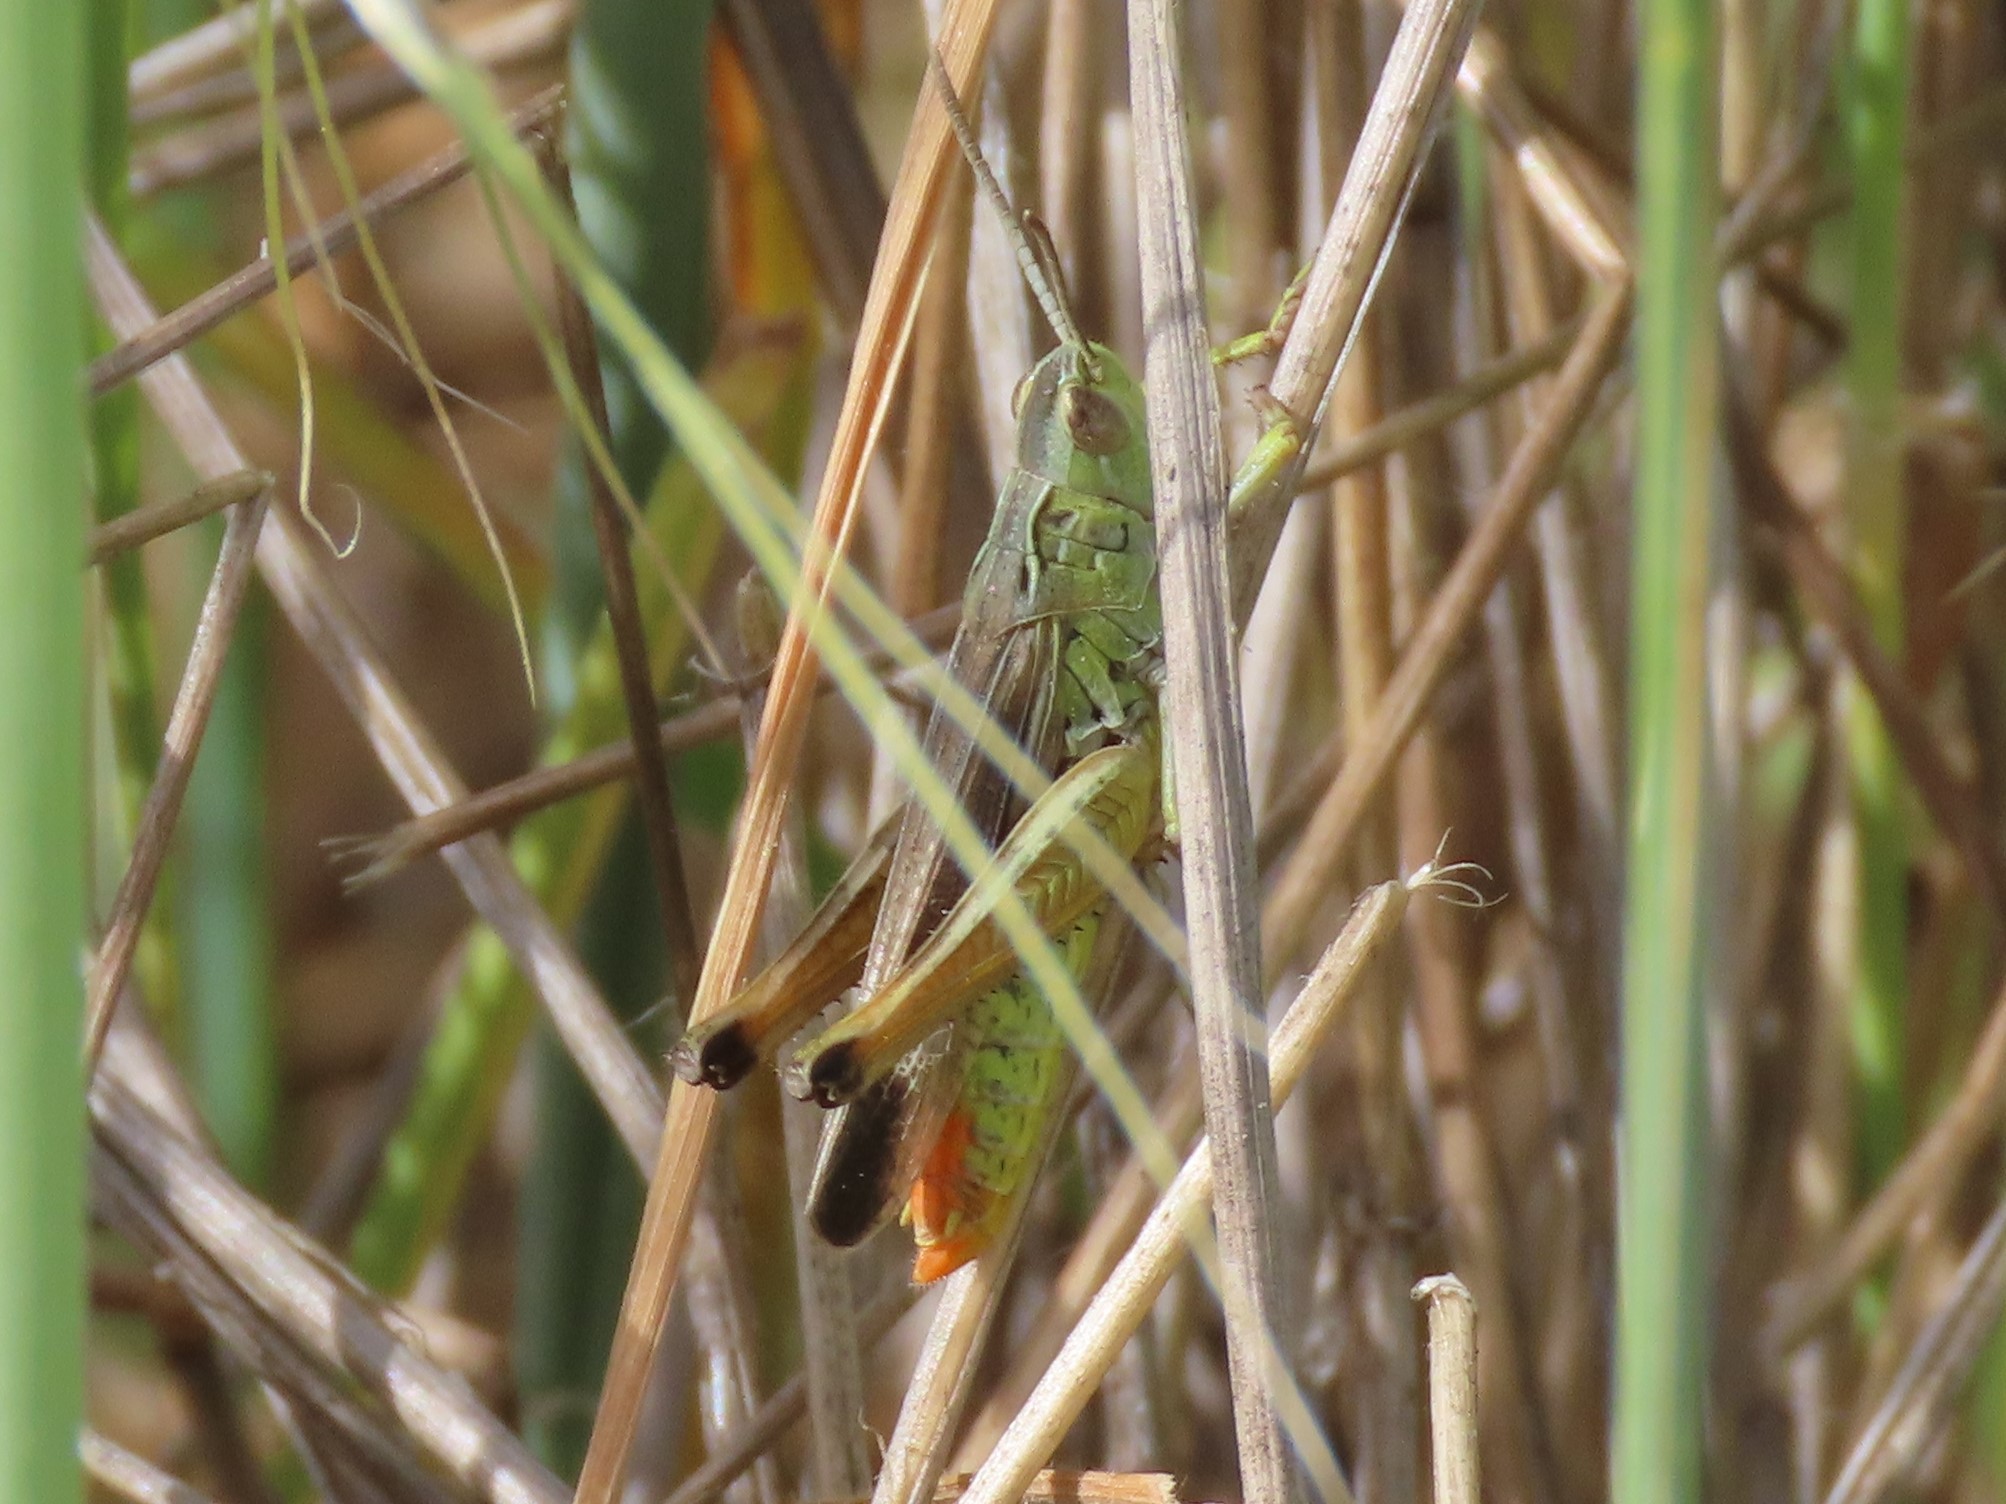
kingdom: Animalia
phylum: Arthropoda
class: Insecta
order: Orthoptera
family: Acrididae
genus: Chorthippus
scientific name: Chorthippus apicalis
